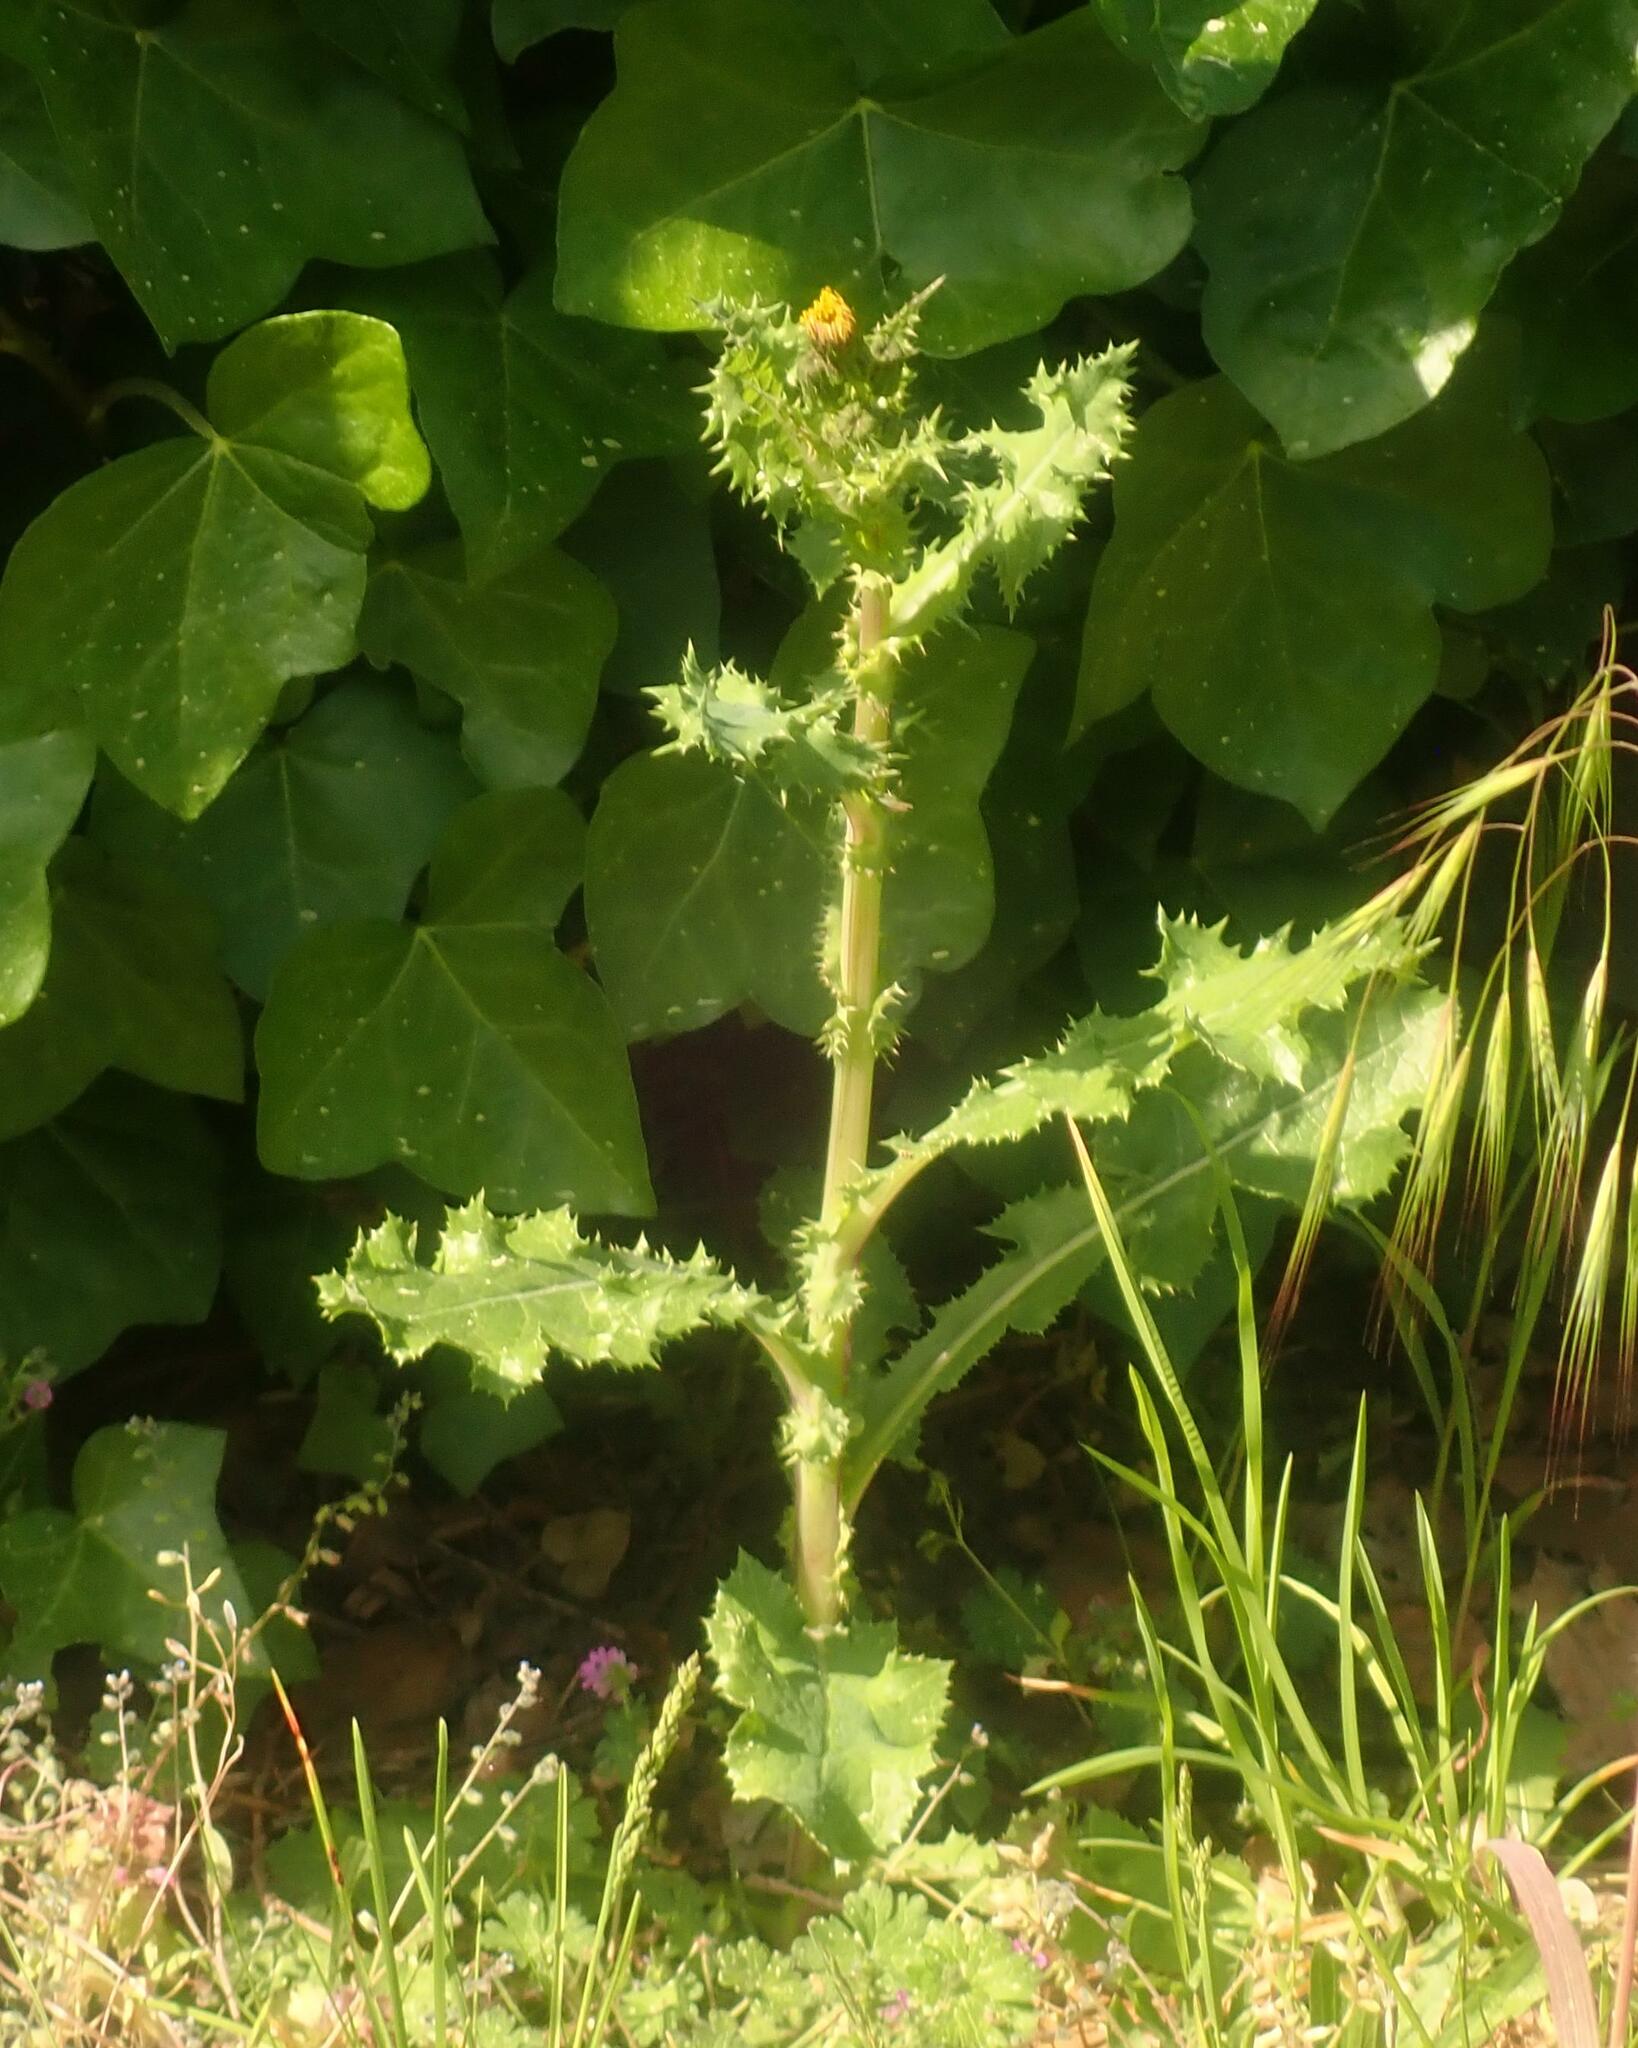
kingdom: Plantae
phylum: Tracheophyta
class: Magnoliopsida
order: Asterales
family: Asteraceae
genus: Sonchus
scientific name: Sonchus asper
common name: Prickly sow-thistle
